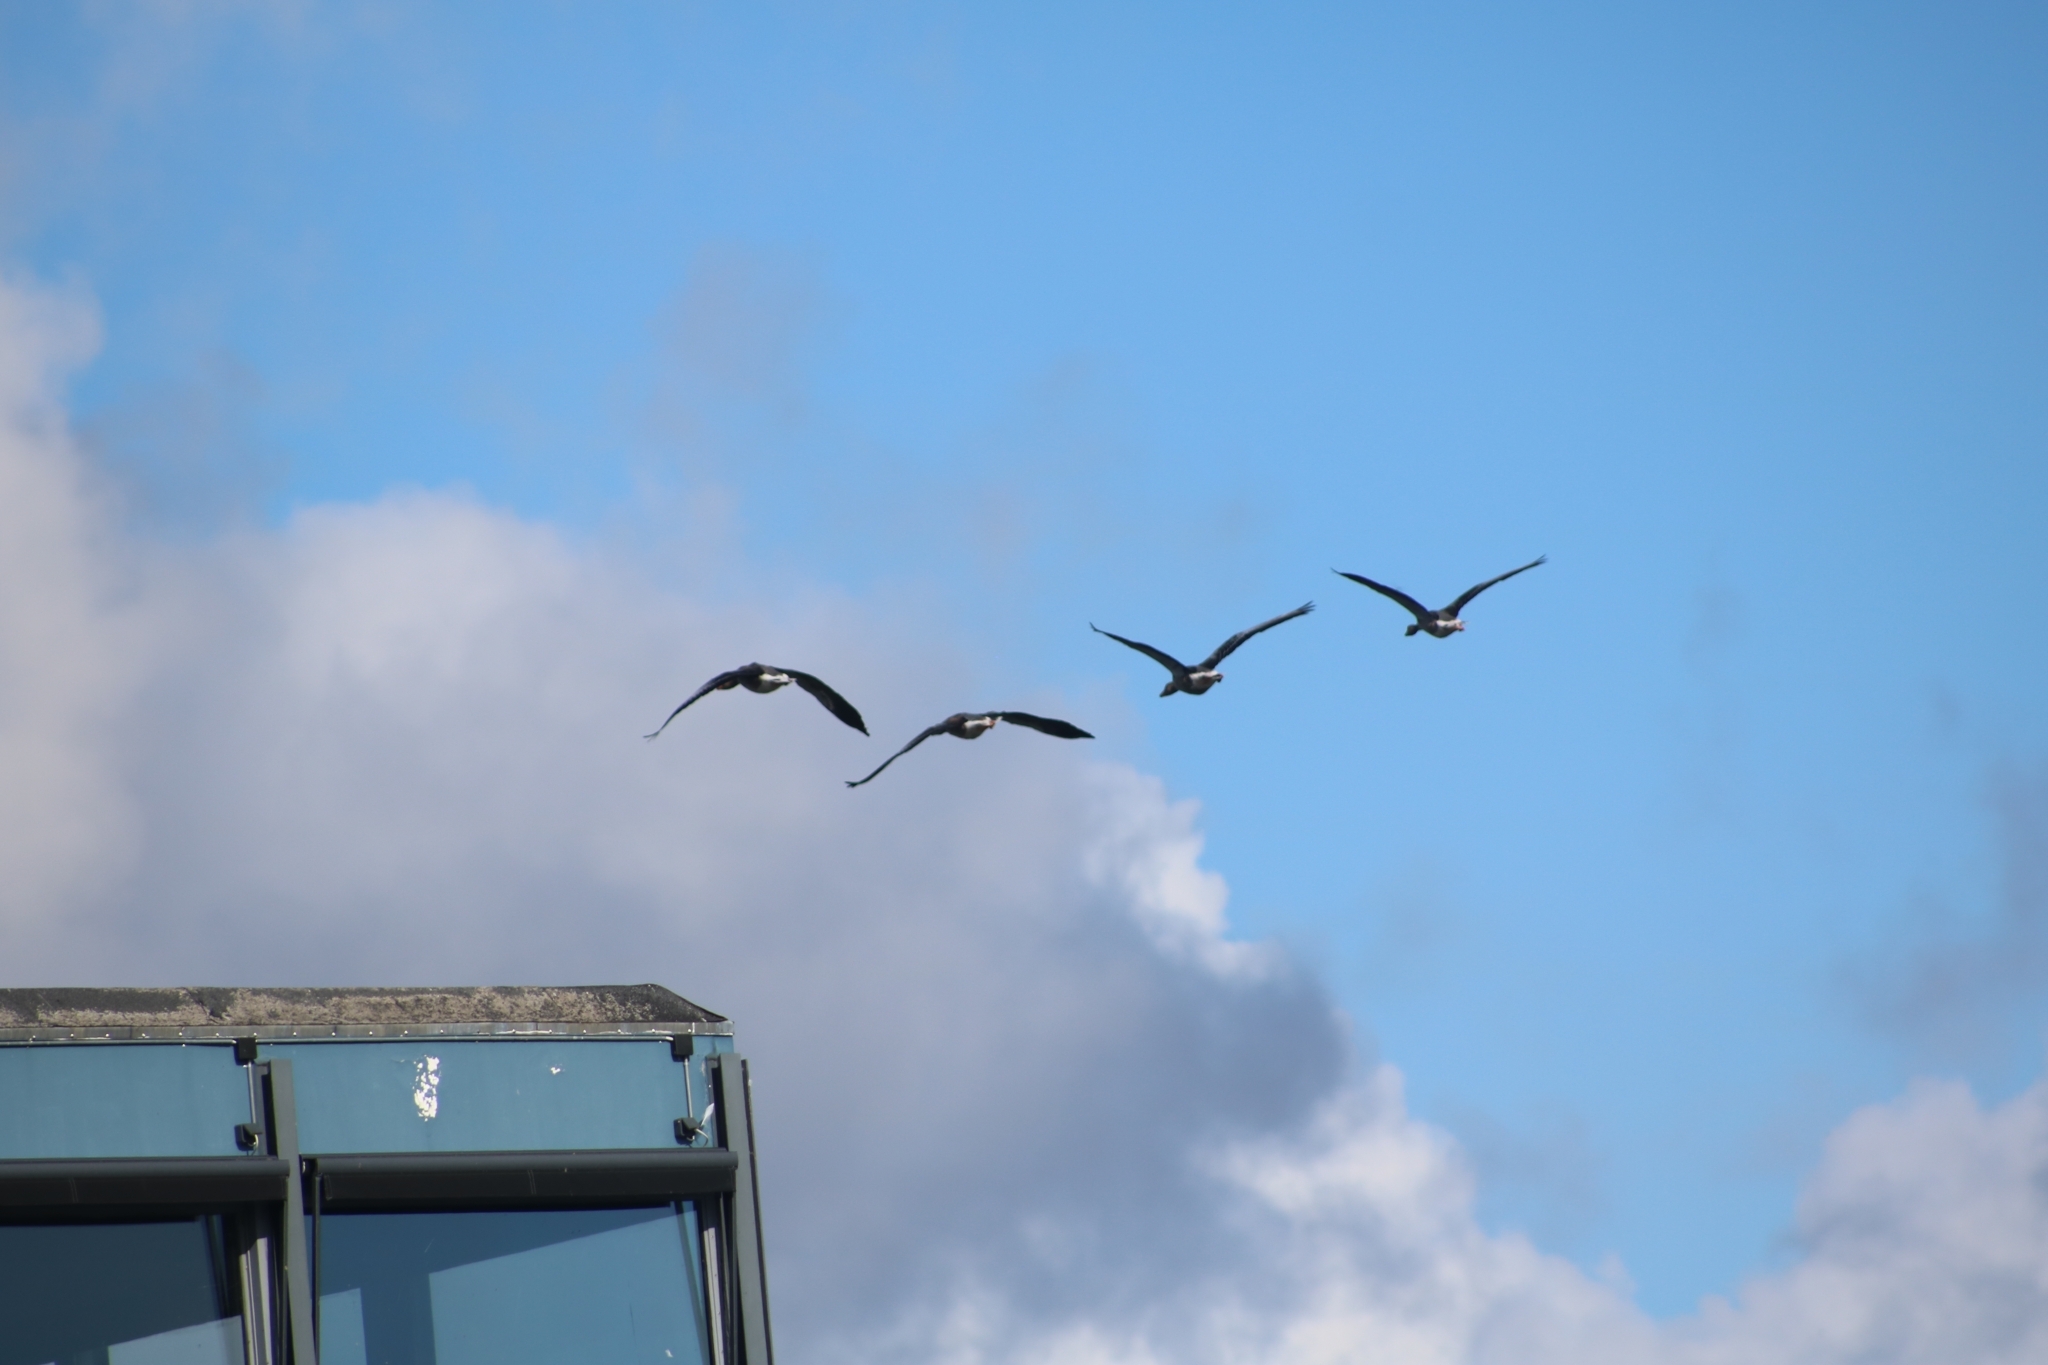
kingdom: Animalia
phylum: Chordata
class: Aves
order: Anseriformes
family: Anatidae
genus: Anser
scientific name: Anser anser
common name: Greylag goose
